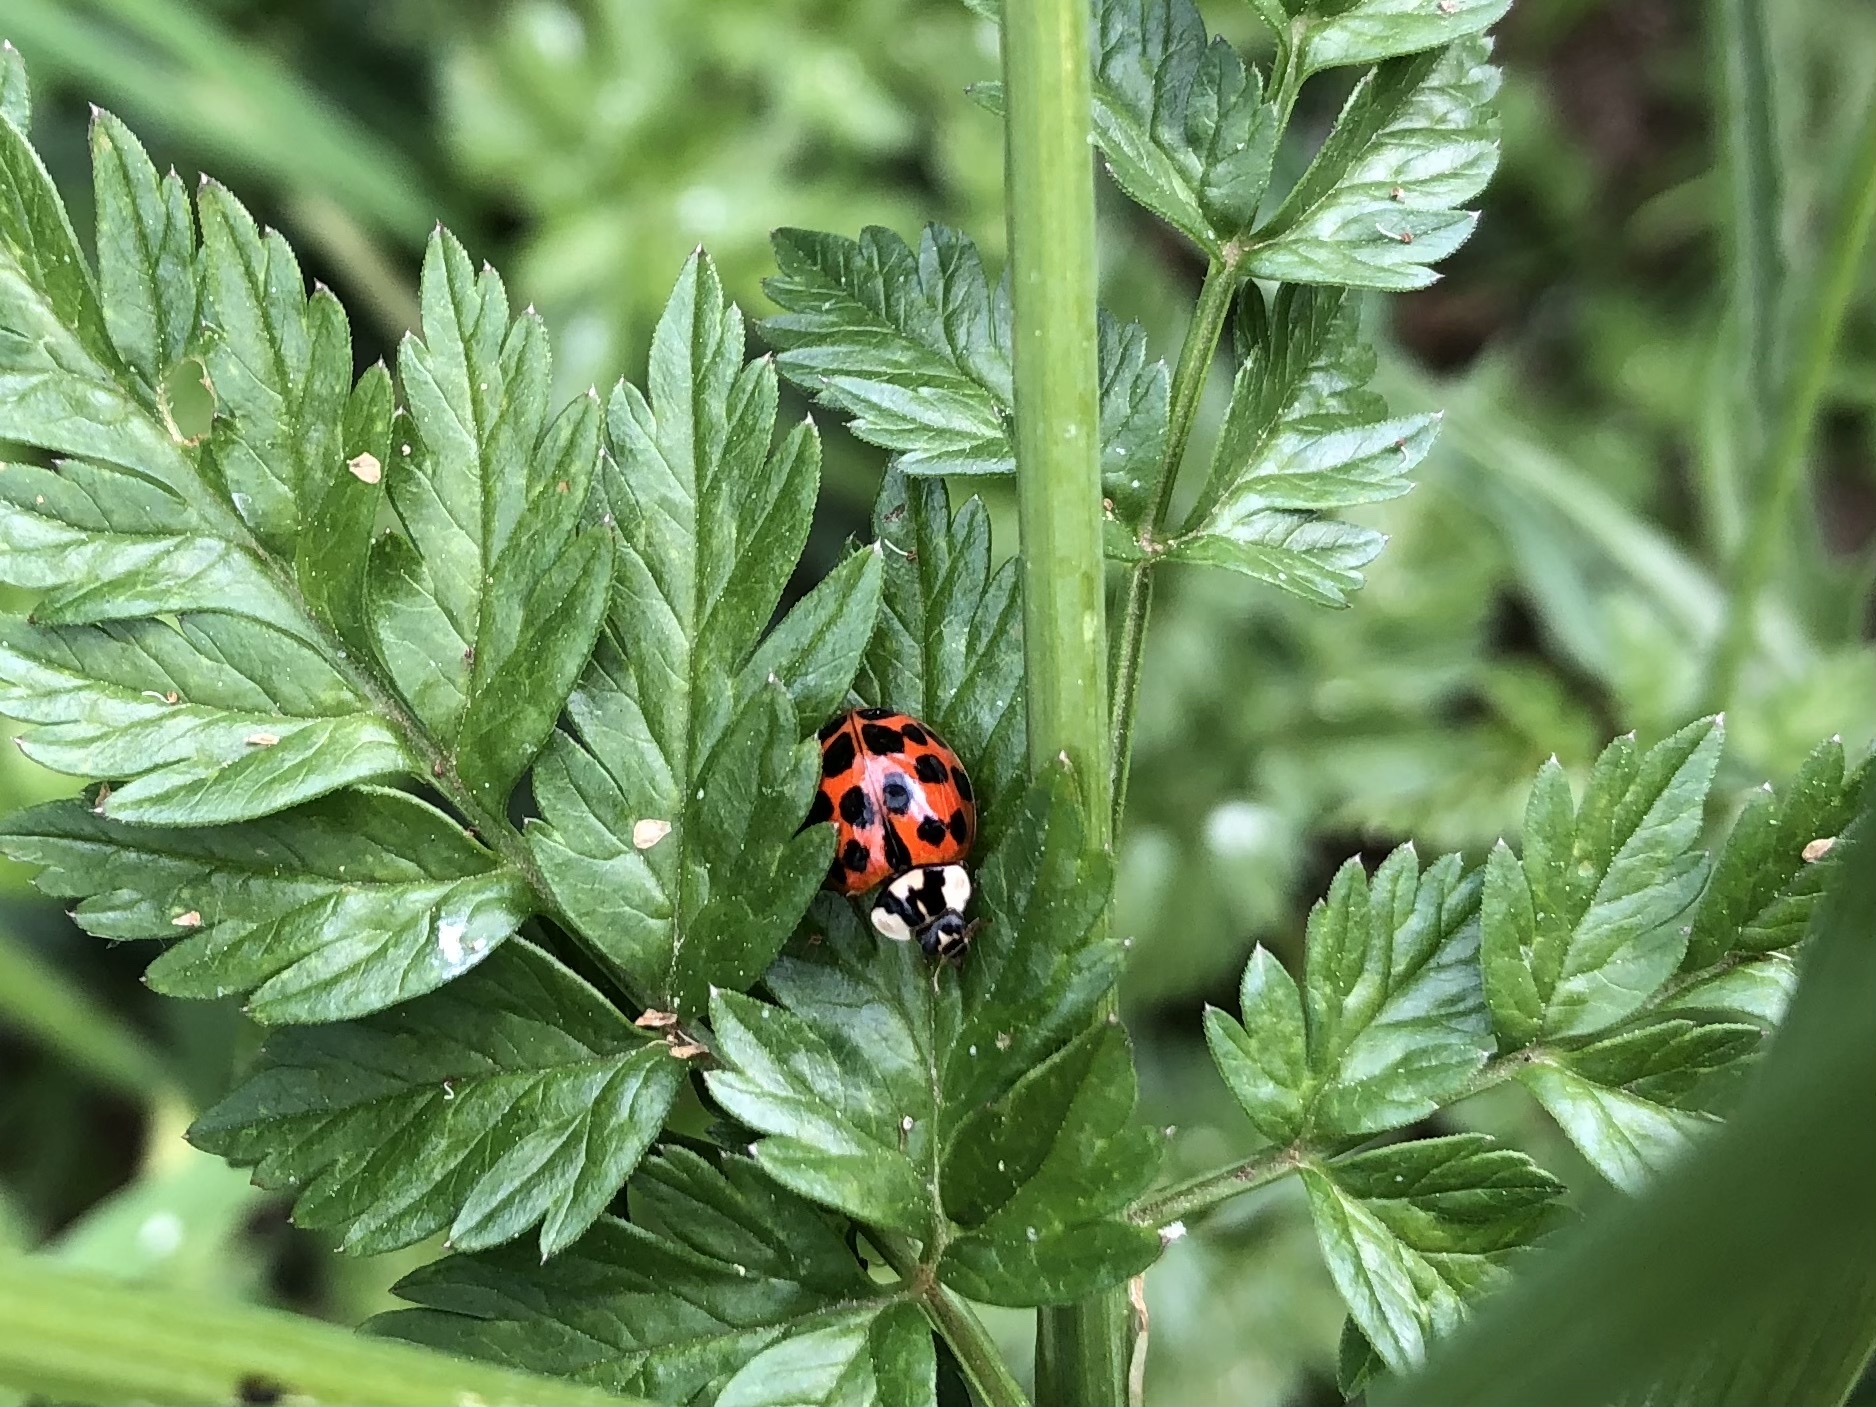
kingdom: Animalia
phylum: Arthropoda
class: Insecta
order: Coleoptera
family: Coccinellidae
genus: Harmonia
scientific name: Harmonia axyridis
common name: Harlequin ladybird
